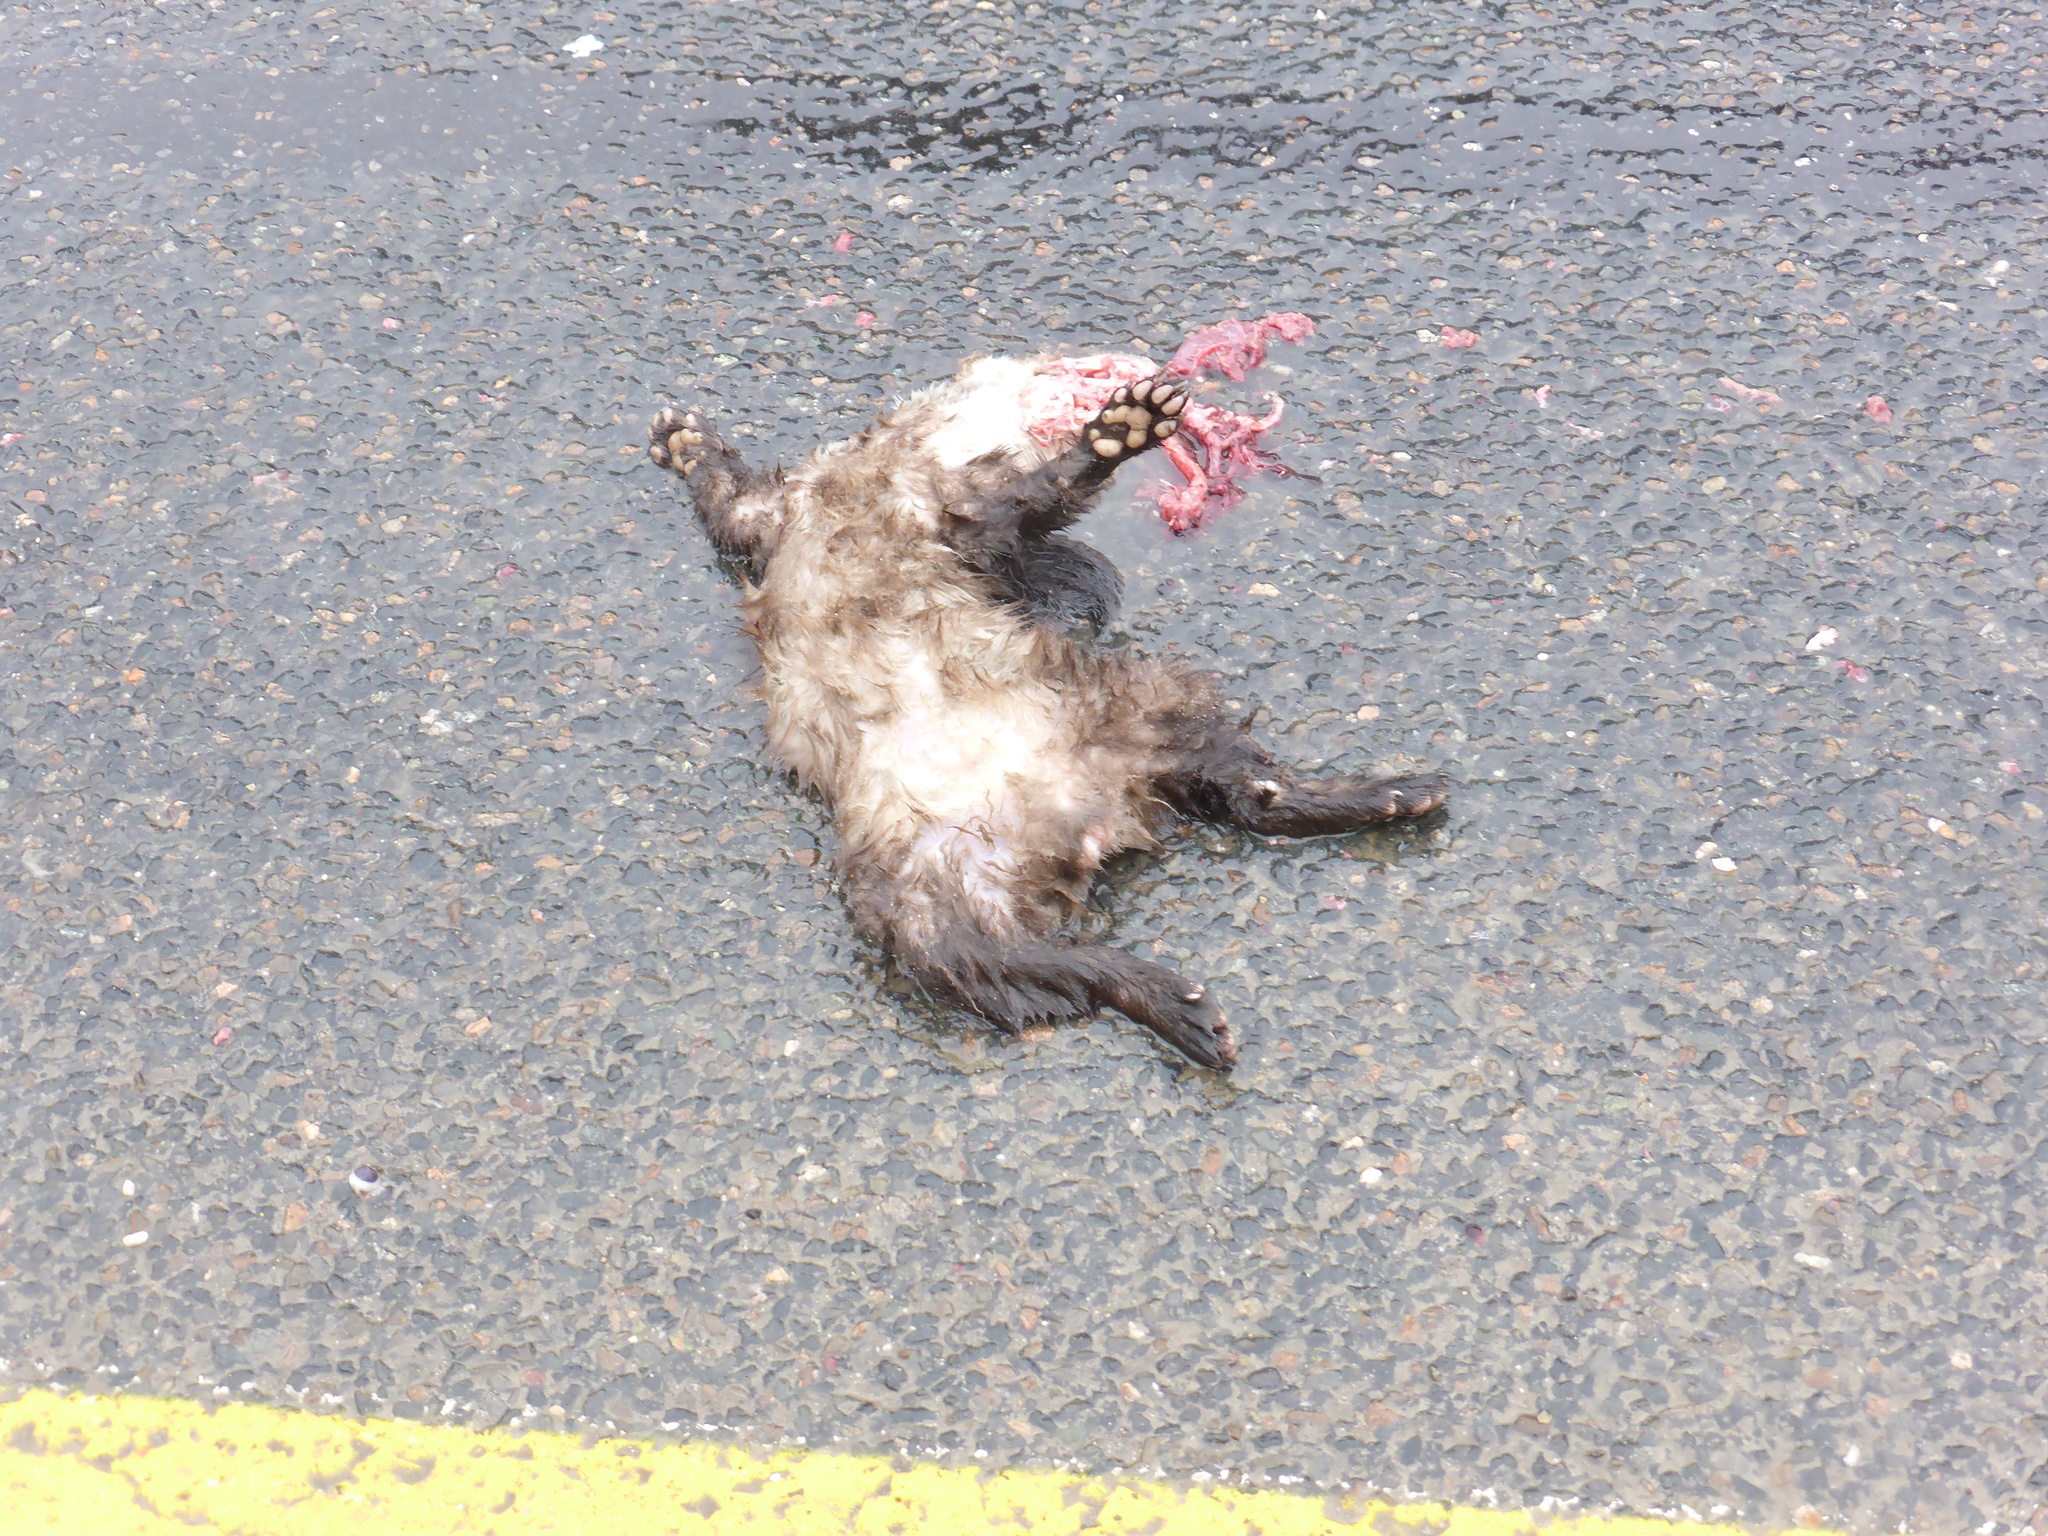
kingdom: Animalia
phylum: Chordata
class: Mammalia
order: Carnivora
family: Mustelidae
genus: Martes
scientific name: Martes foina
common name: Beech marten
